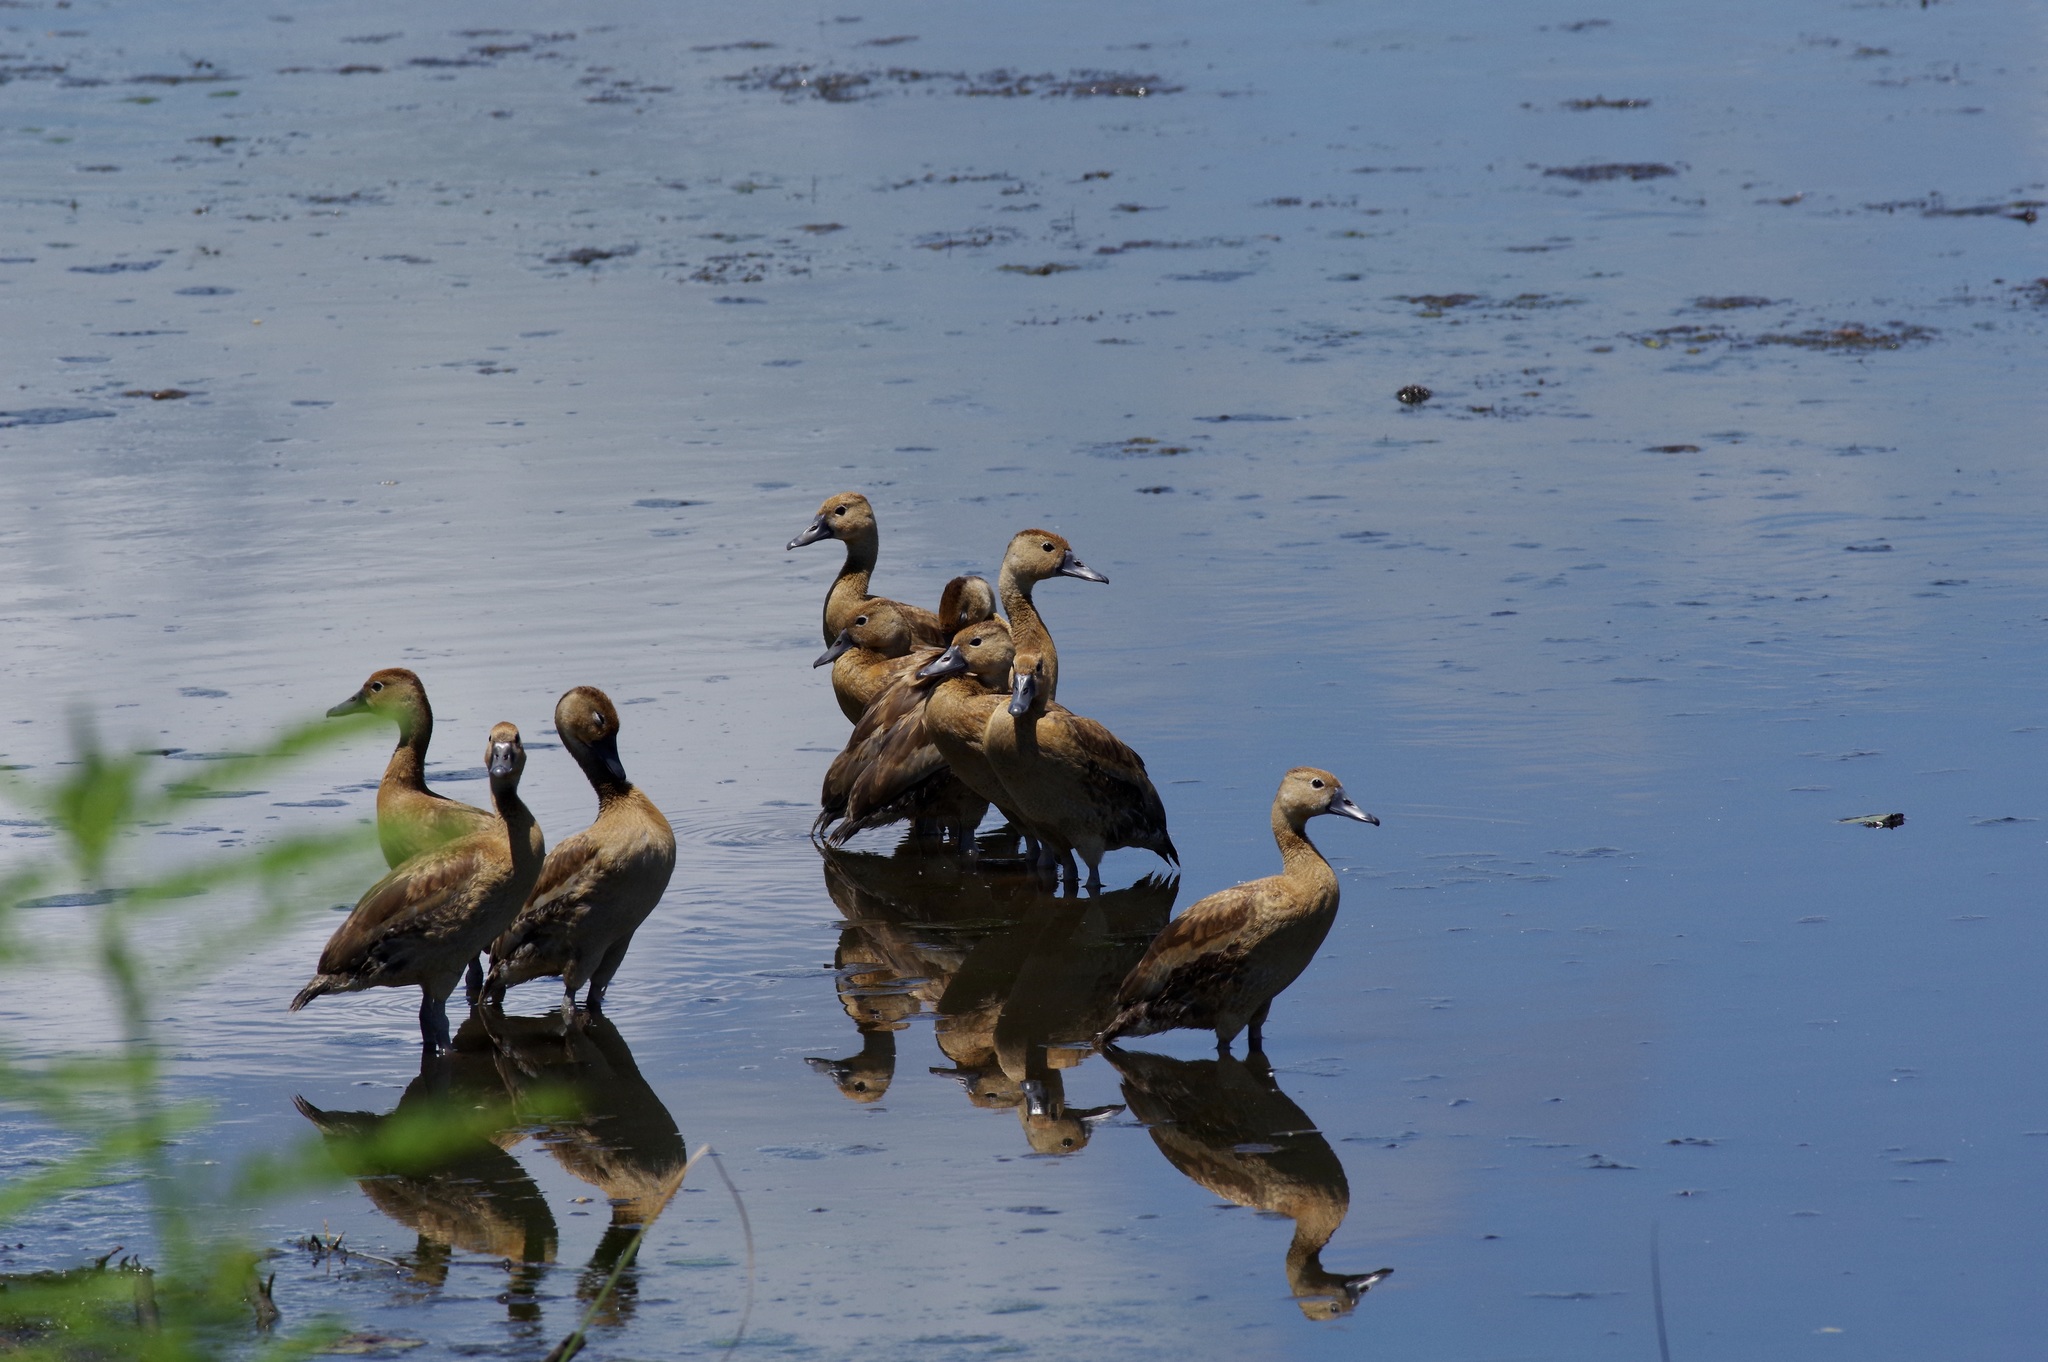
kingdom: Animalia
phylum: Chordata
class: Aves
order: Anseriformes
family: Anatidae
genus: Dendrocygna
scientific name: Dendrocygna autumnalis
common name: Black-bellied whistling duck
